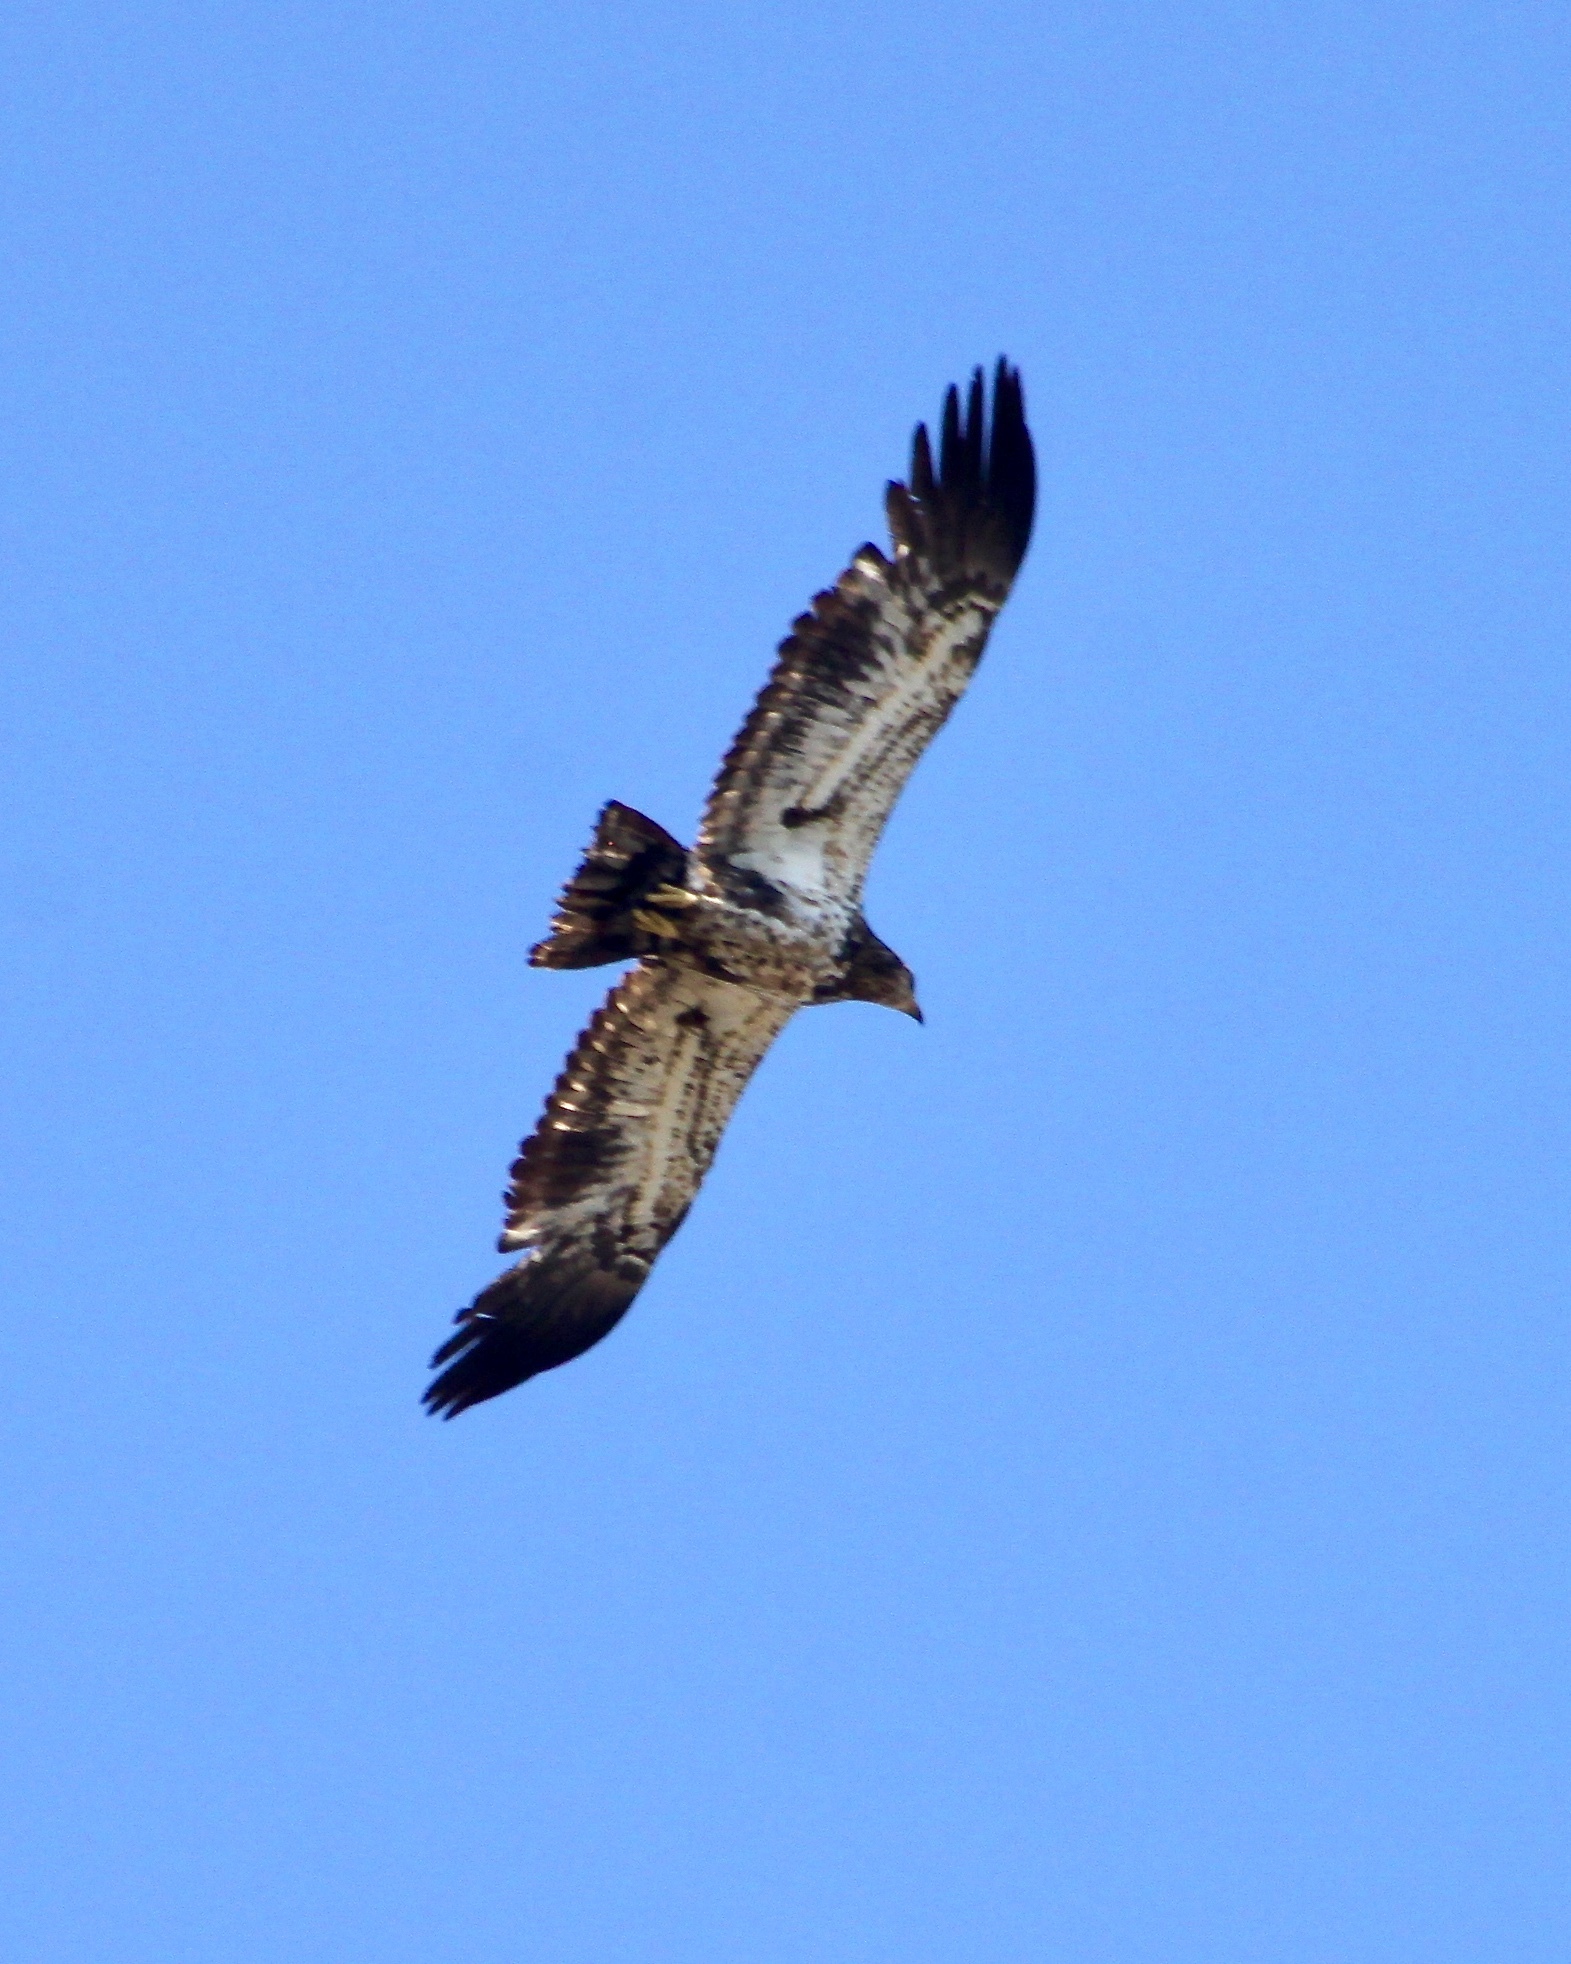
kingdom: Animalia
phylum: Chordata
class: Aves
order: Accipitriformes
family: Accipitridae
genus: Haliaeetus
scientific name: Haliaeetus leucocephalus
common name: Bald eagle
